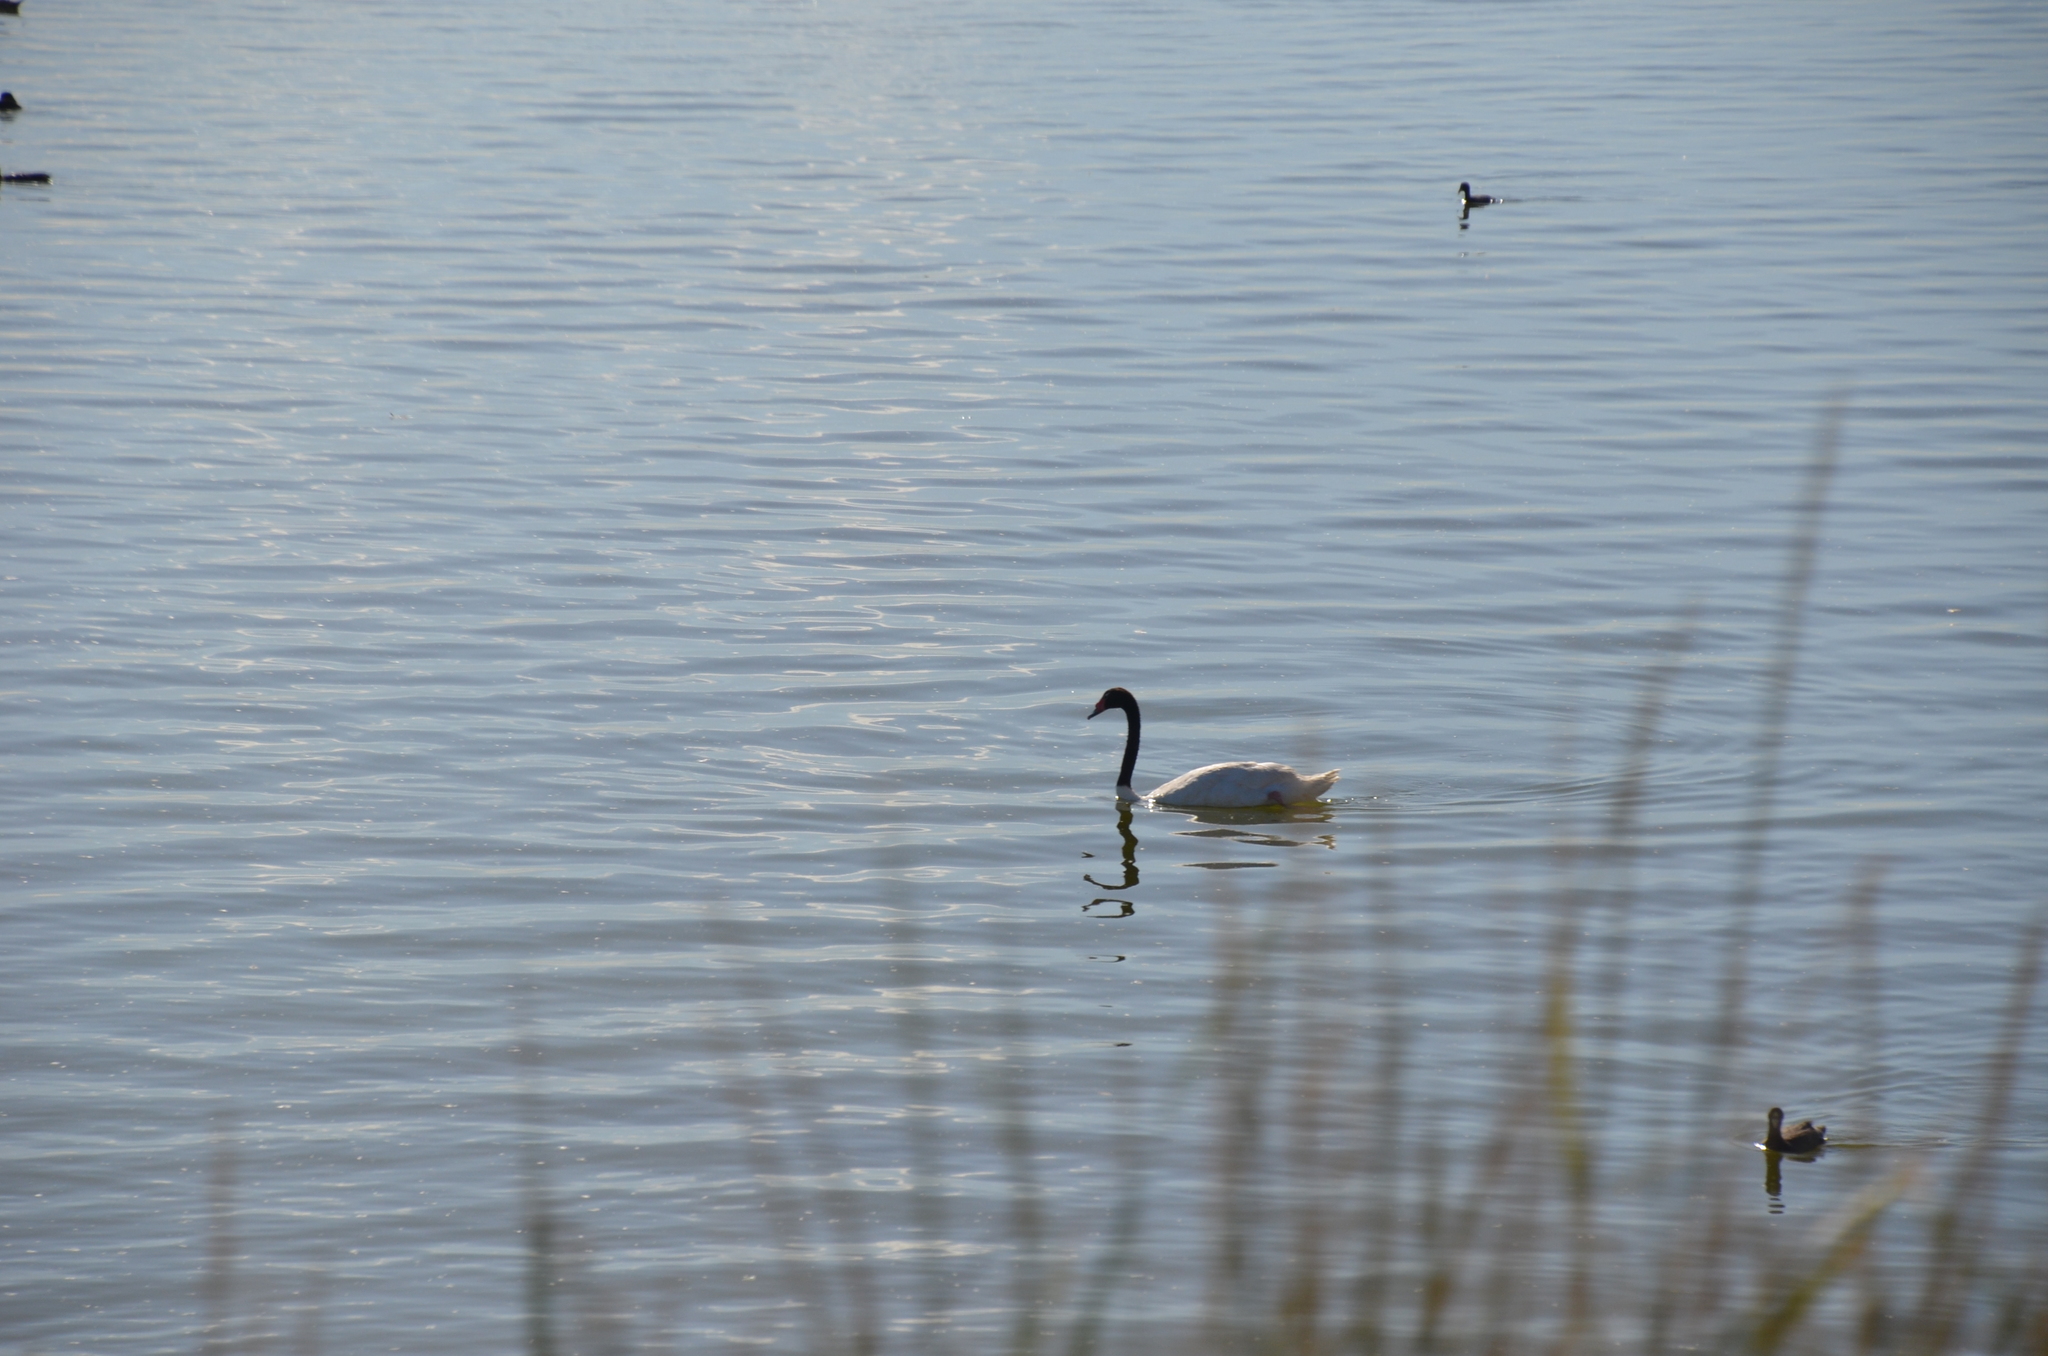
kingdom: Animalia
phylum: Chordata
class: Aves
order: Anseriformes
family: Anatidae
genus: Cygnus
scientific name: Cygnus melancoryphus
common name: Black-necked swan
